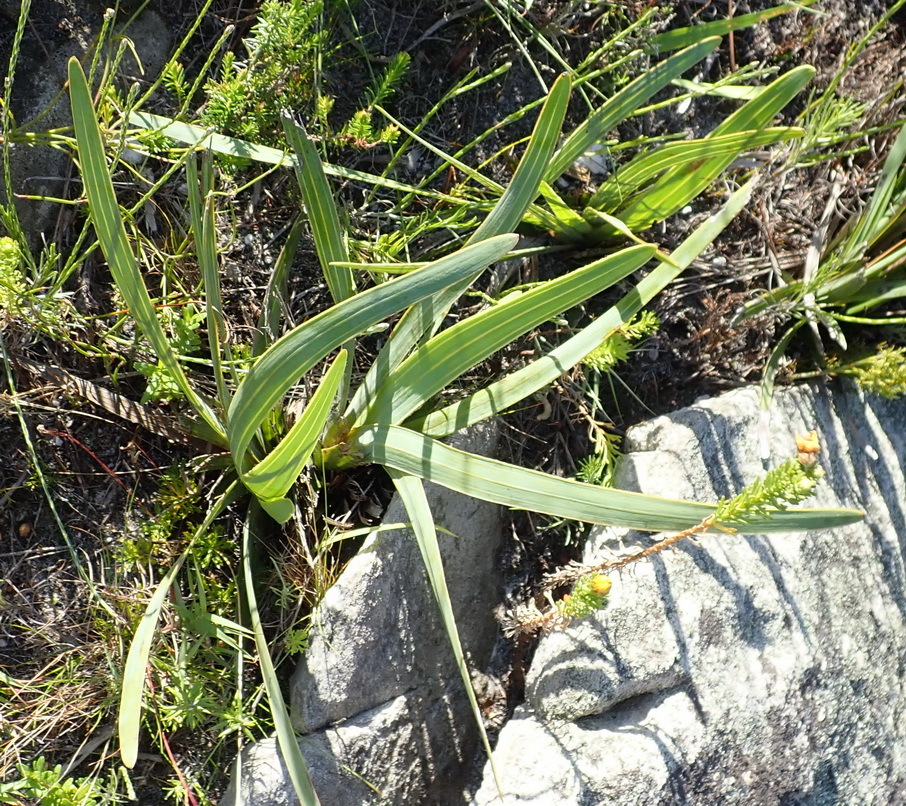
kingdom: Plantae
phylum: Tracheophyta
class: Magnoliopsida
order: Asterales
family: Asteraceae
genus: Corymbium
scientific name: Corymbium glabrum
